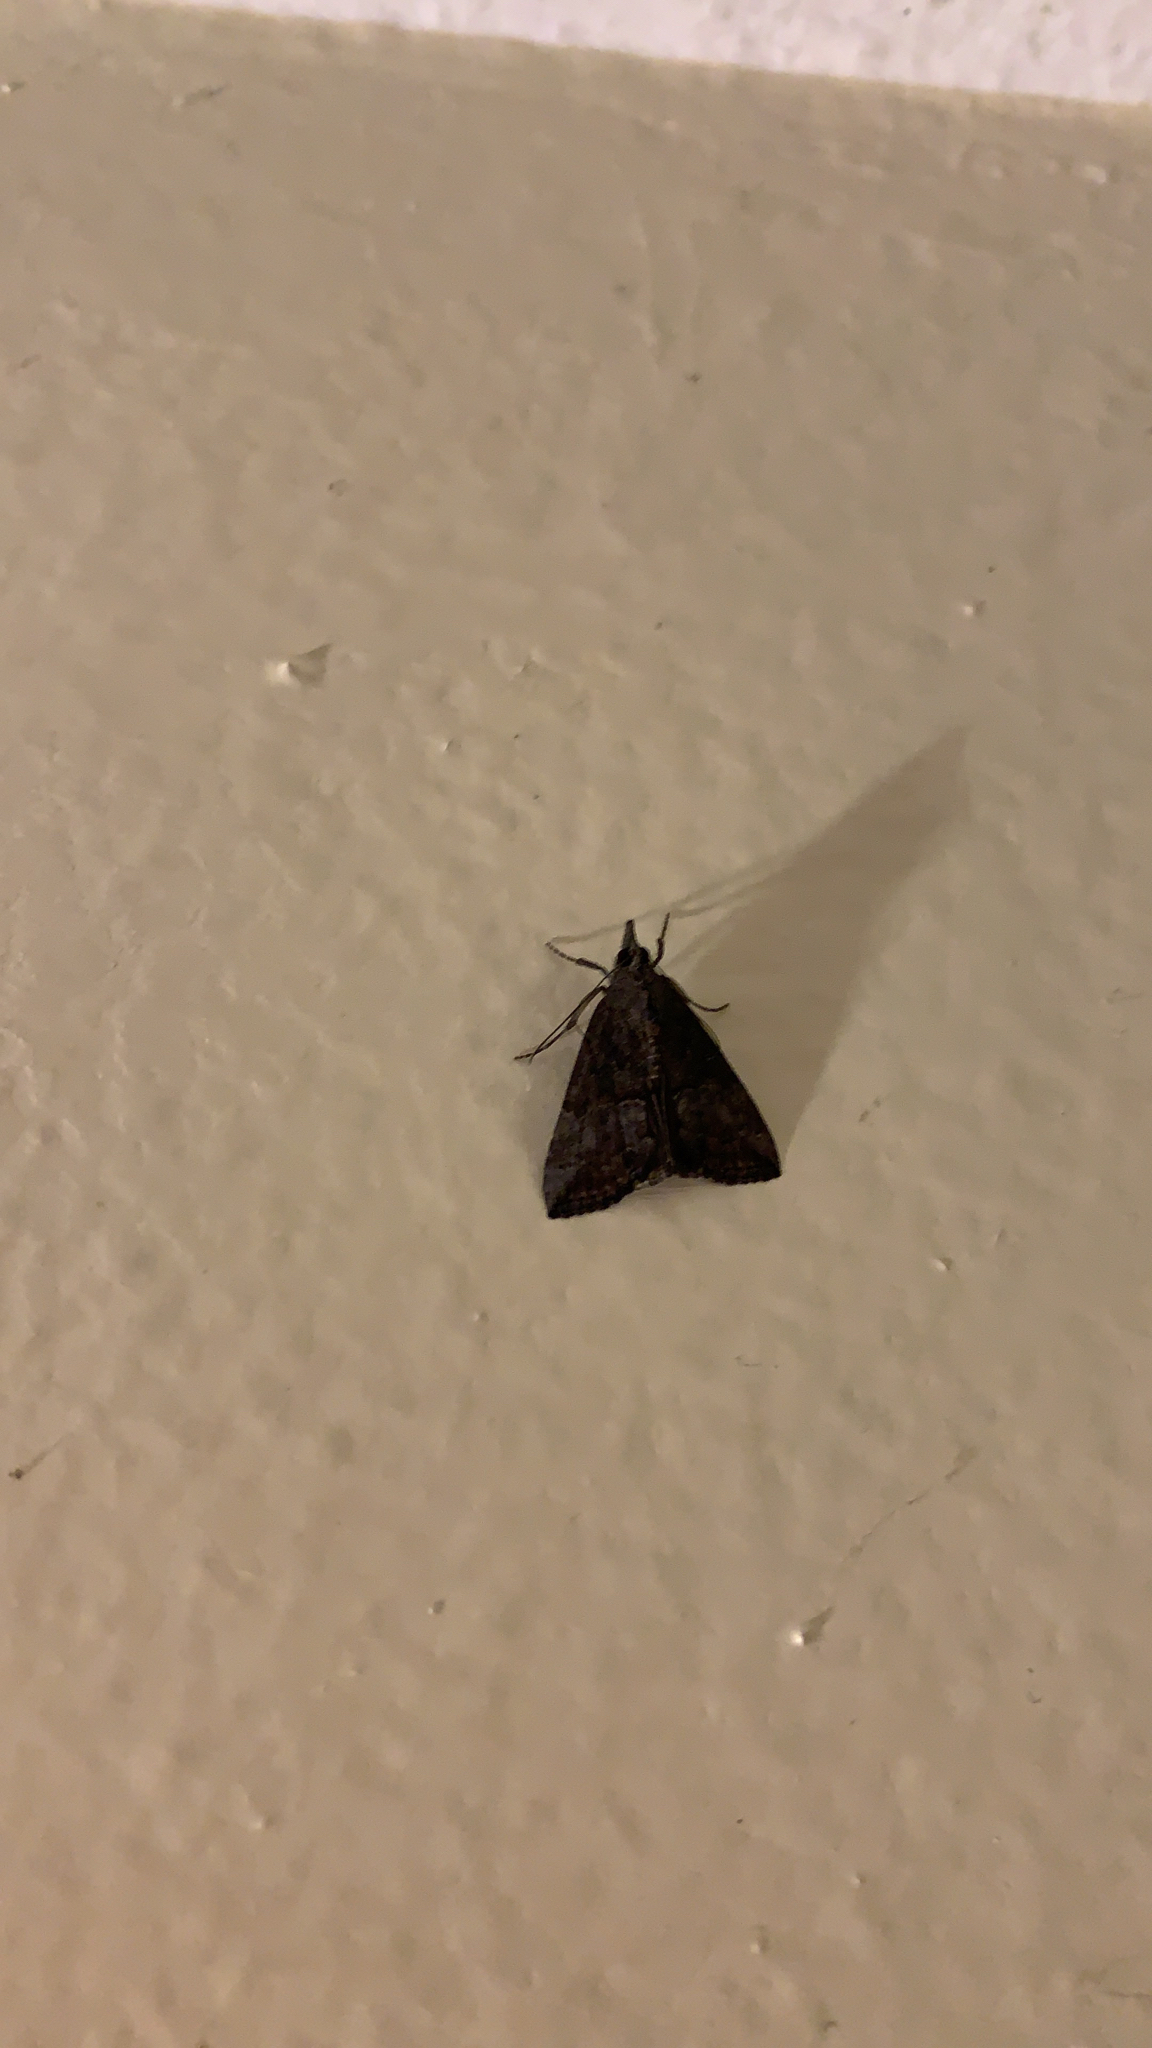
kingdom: Animalia
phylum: Arthropoda
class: Insecta
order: Lepidoptera
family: Erebidae
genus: Hypena
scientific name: Hypena scabra
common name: Green cloverworm
